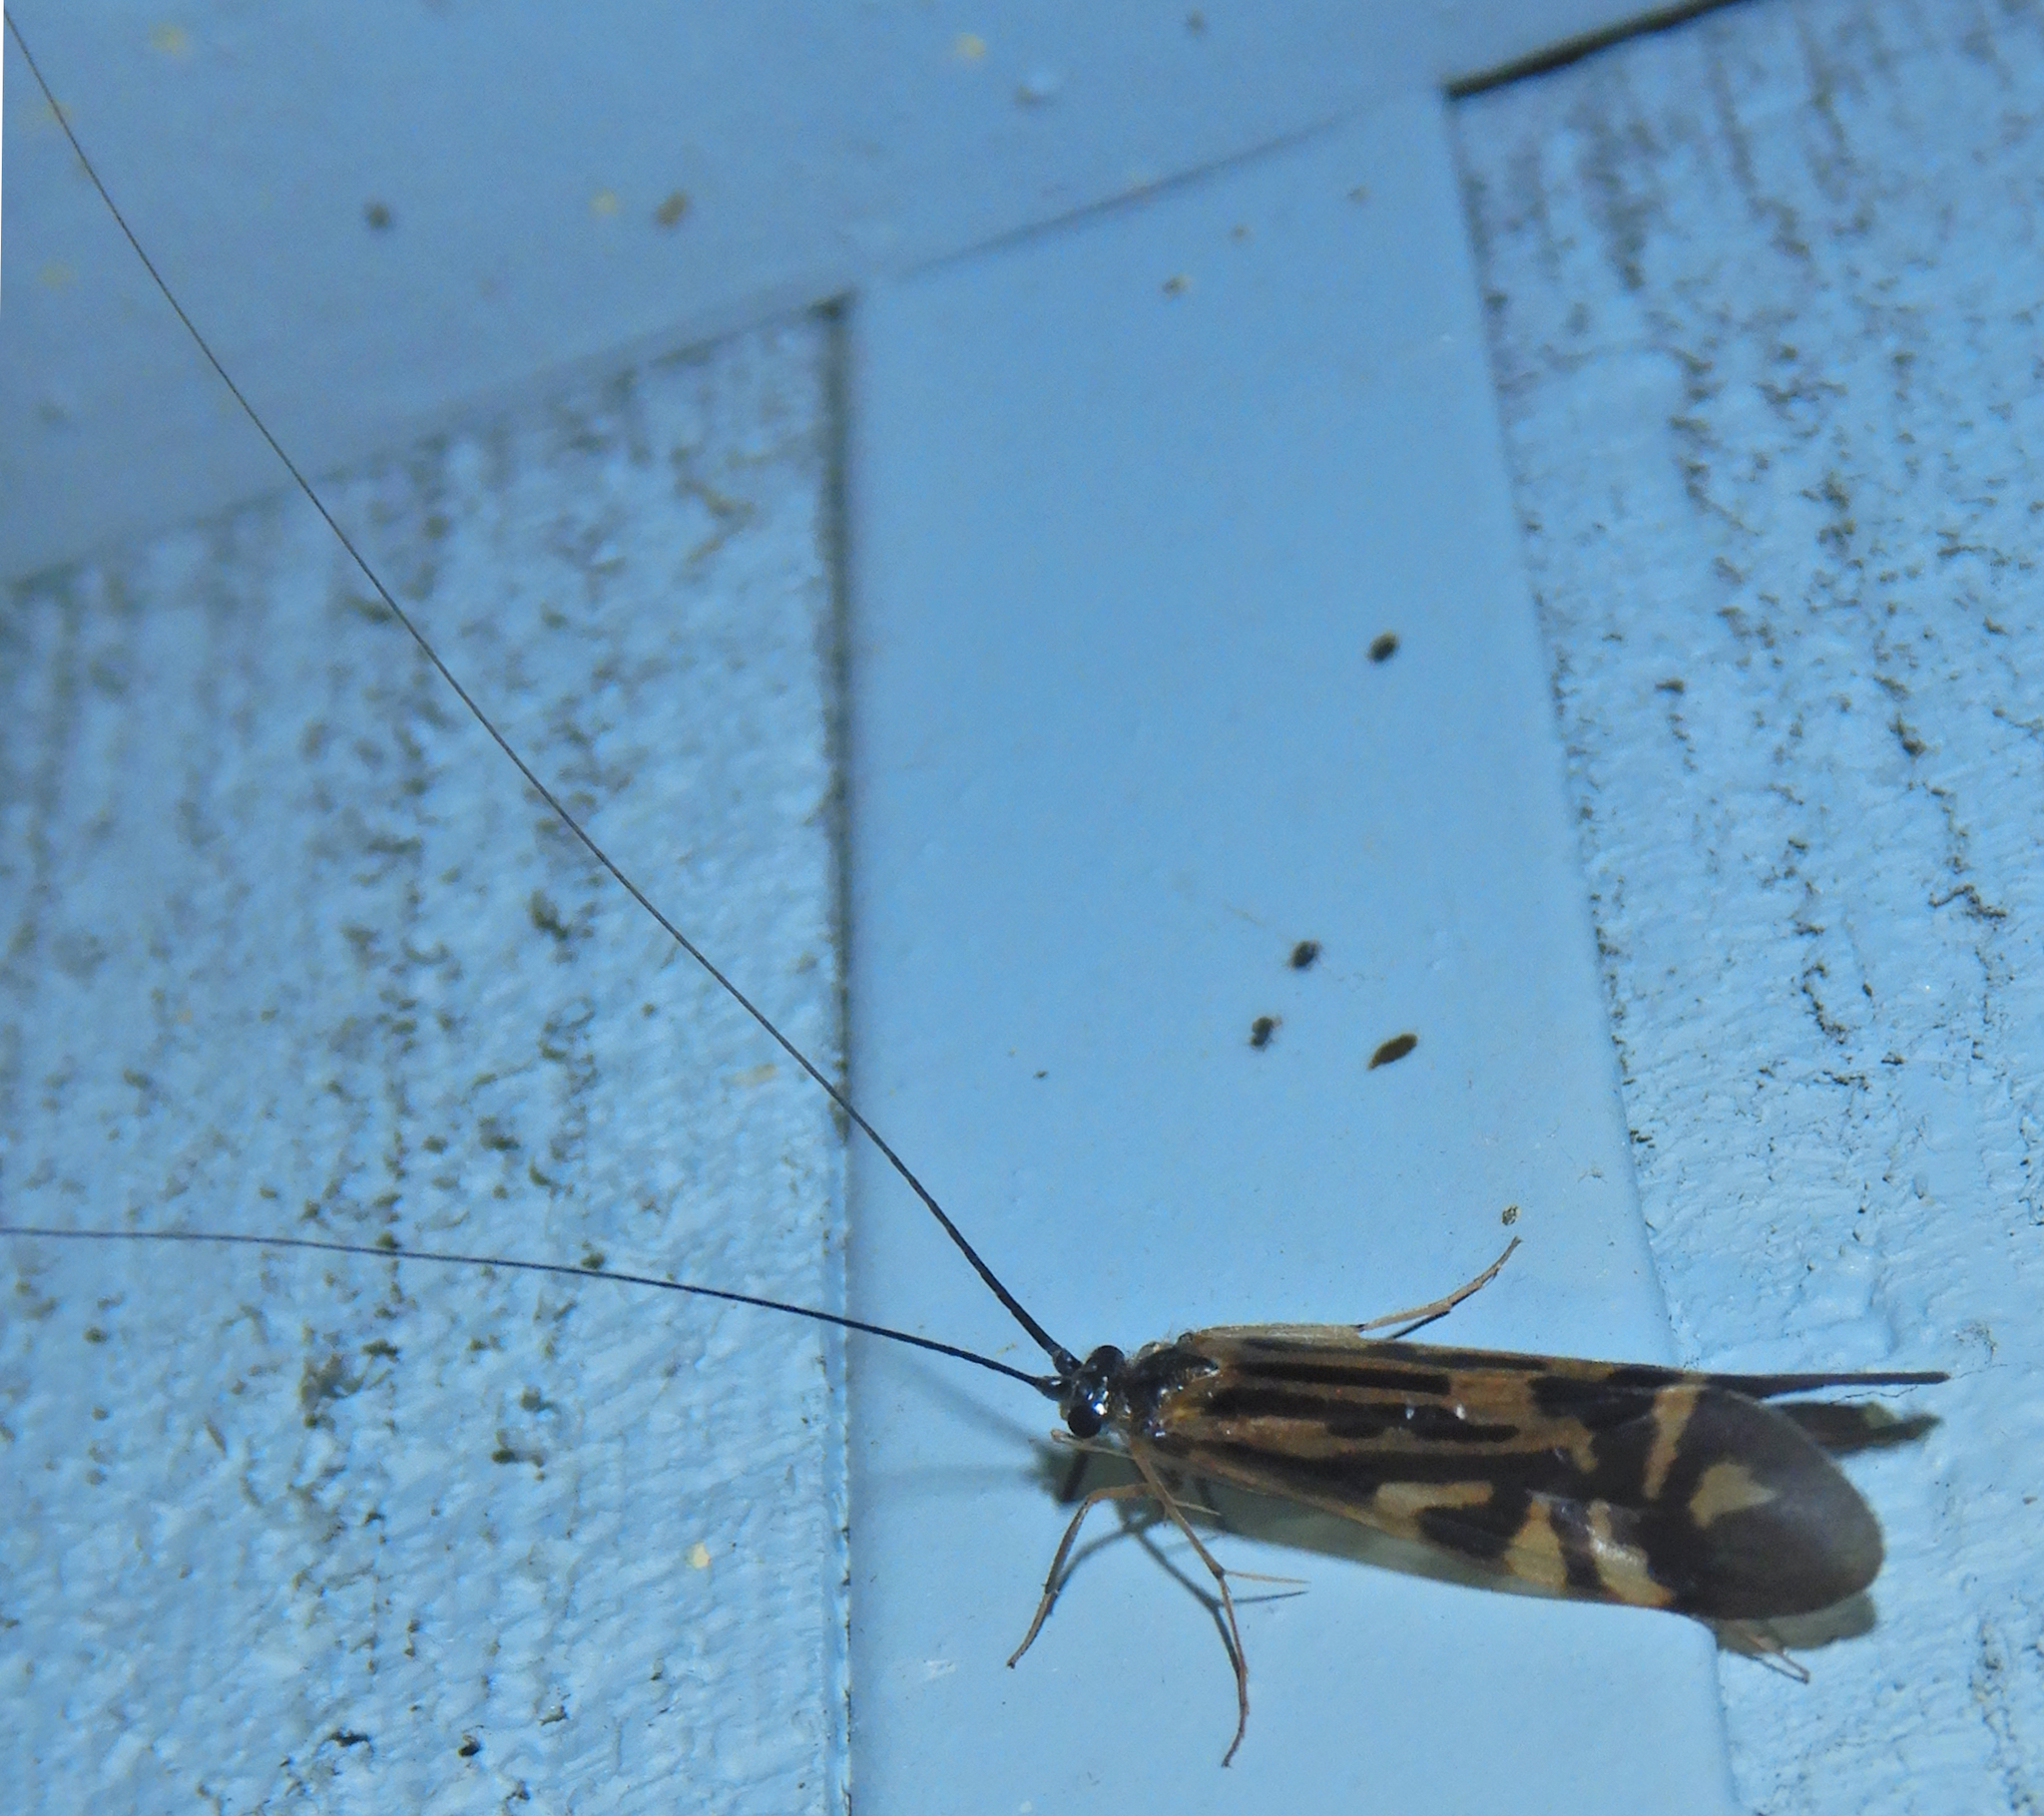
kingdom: Animalia
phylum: Arthropoda
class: Insecta
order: Trichoptera
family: Hydropsychidae
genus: Macrostemum
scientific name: Macrostemum zebratum
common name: Zebra caddisfly
